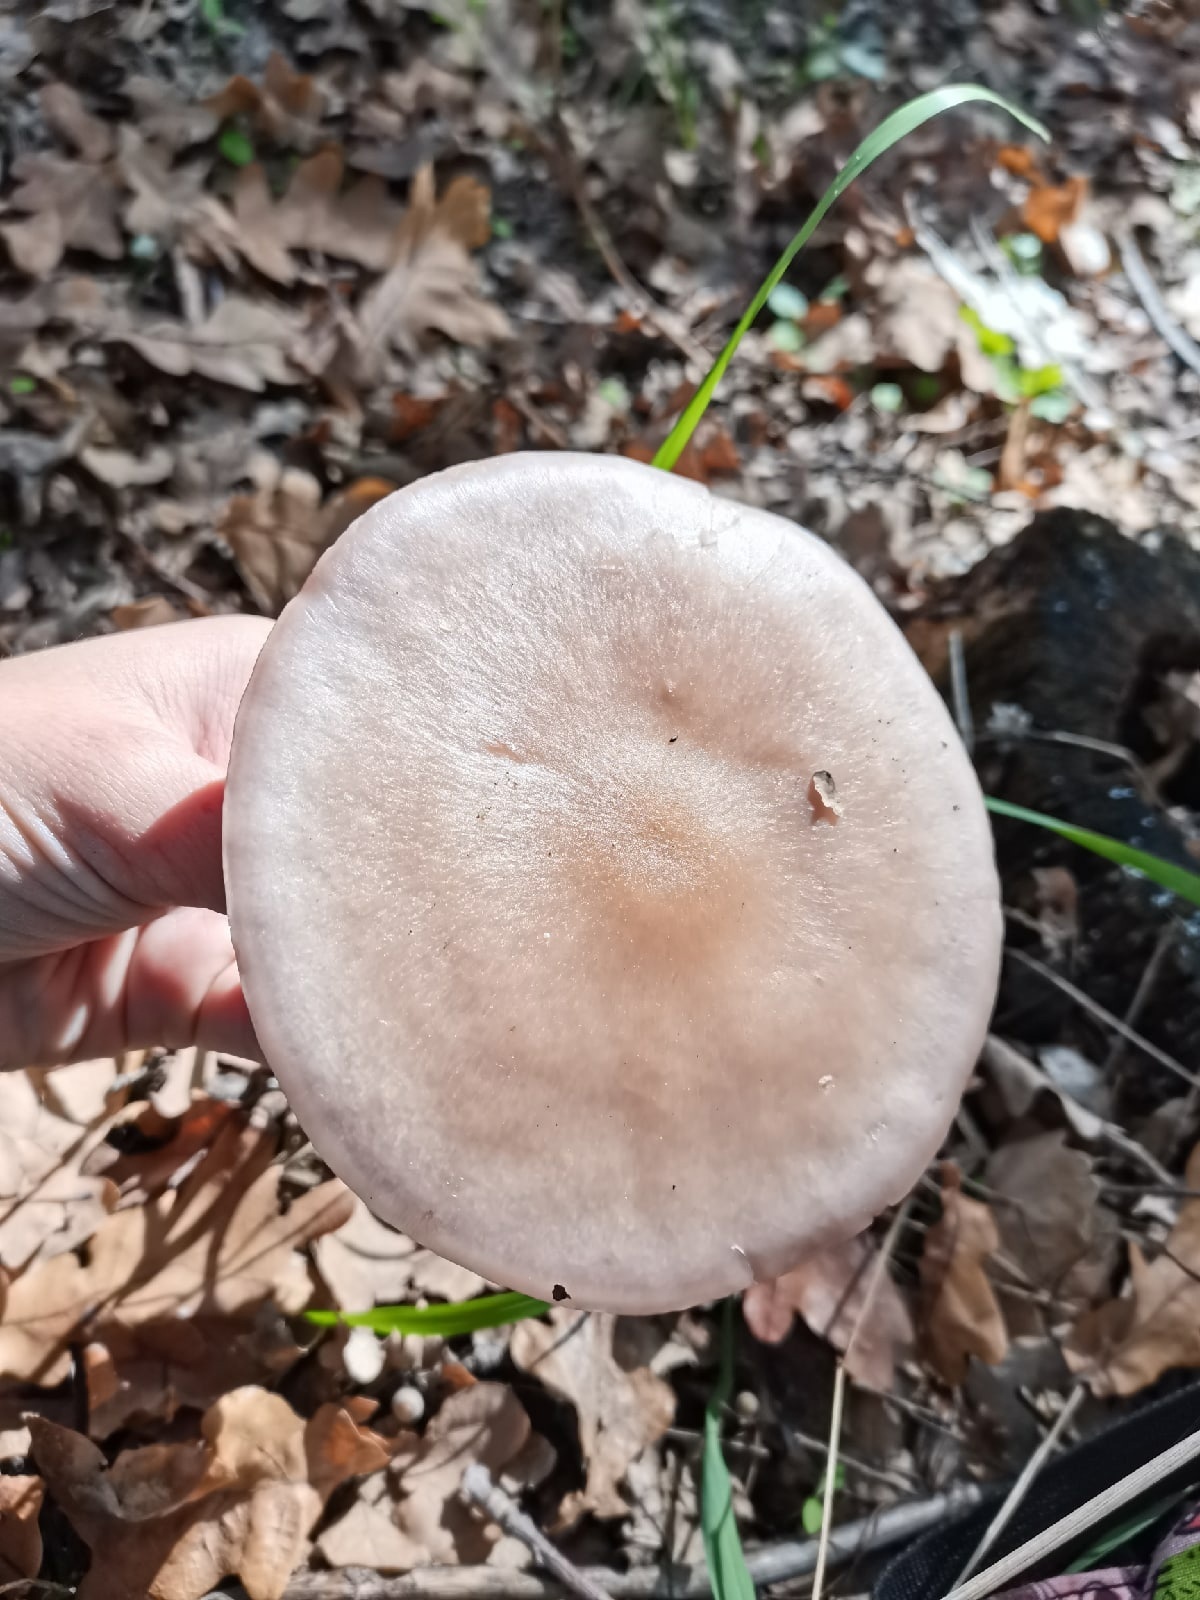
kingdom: Fungi
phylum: Basidiomycota
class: Agaricomycetes
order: Agaricales
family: Tricholomataceae
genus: Collybia
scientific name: Collybia
